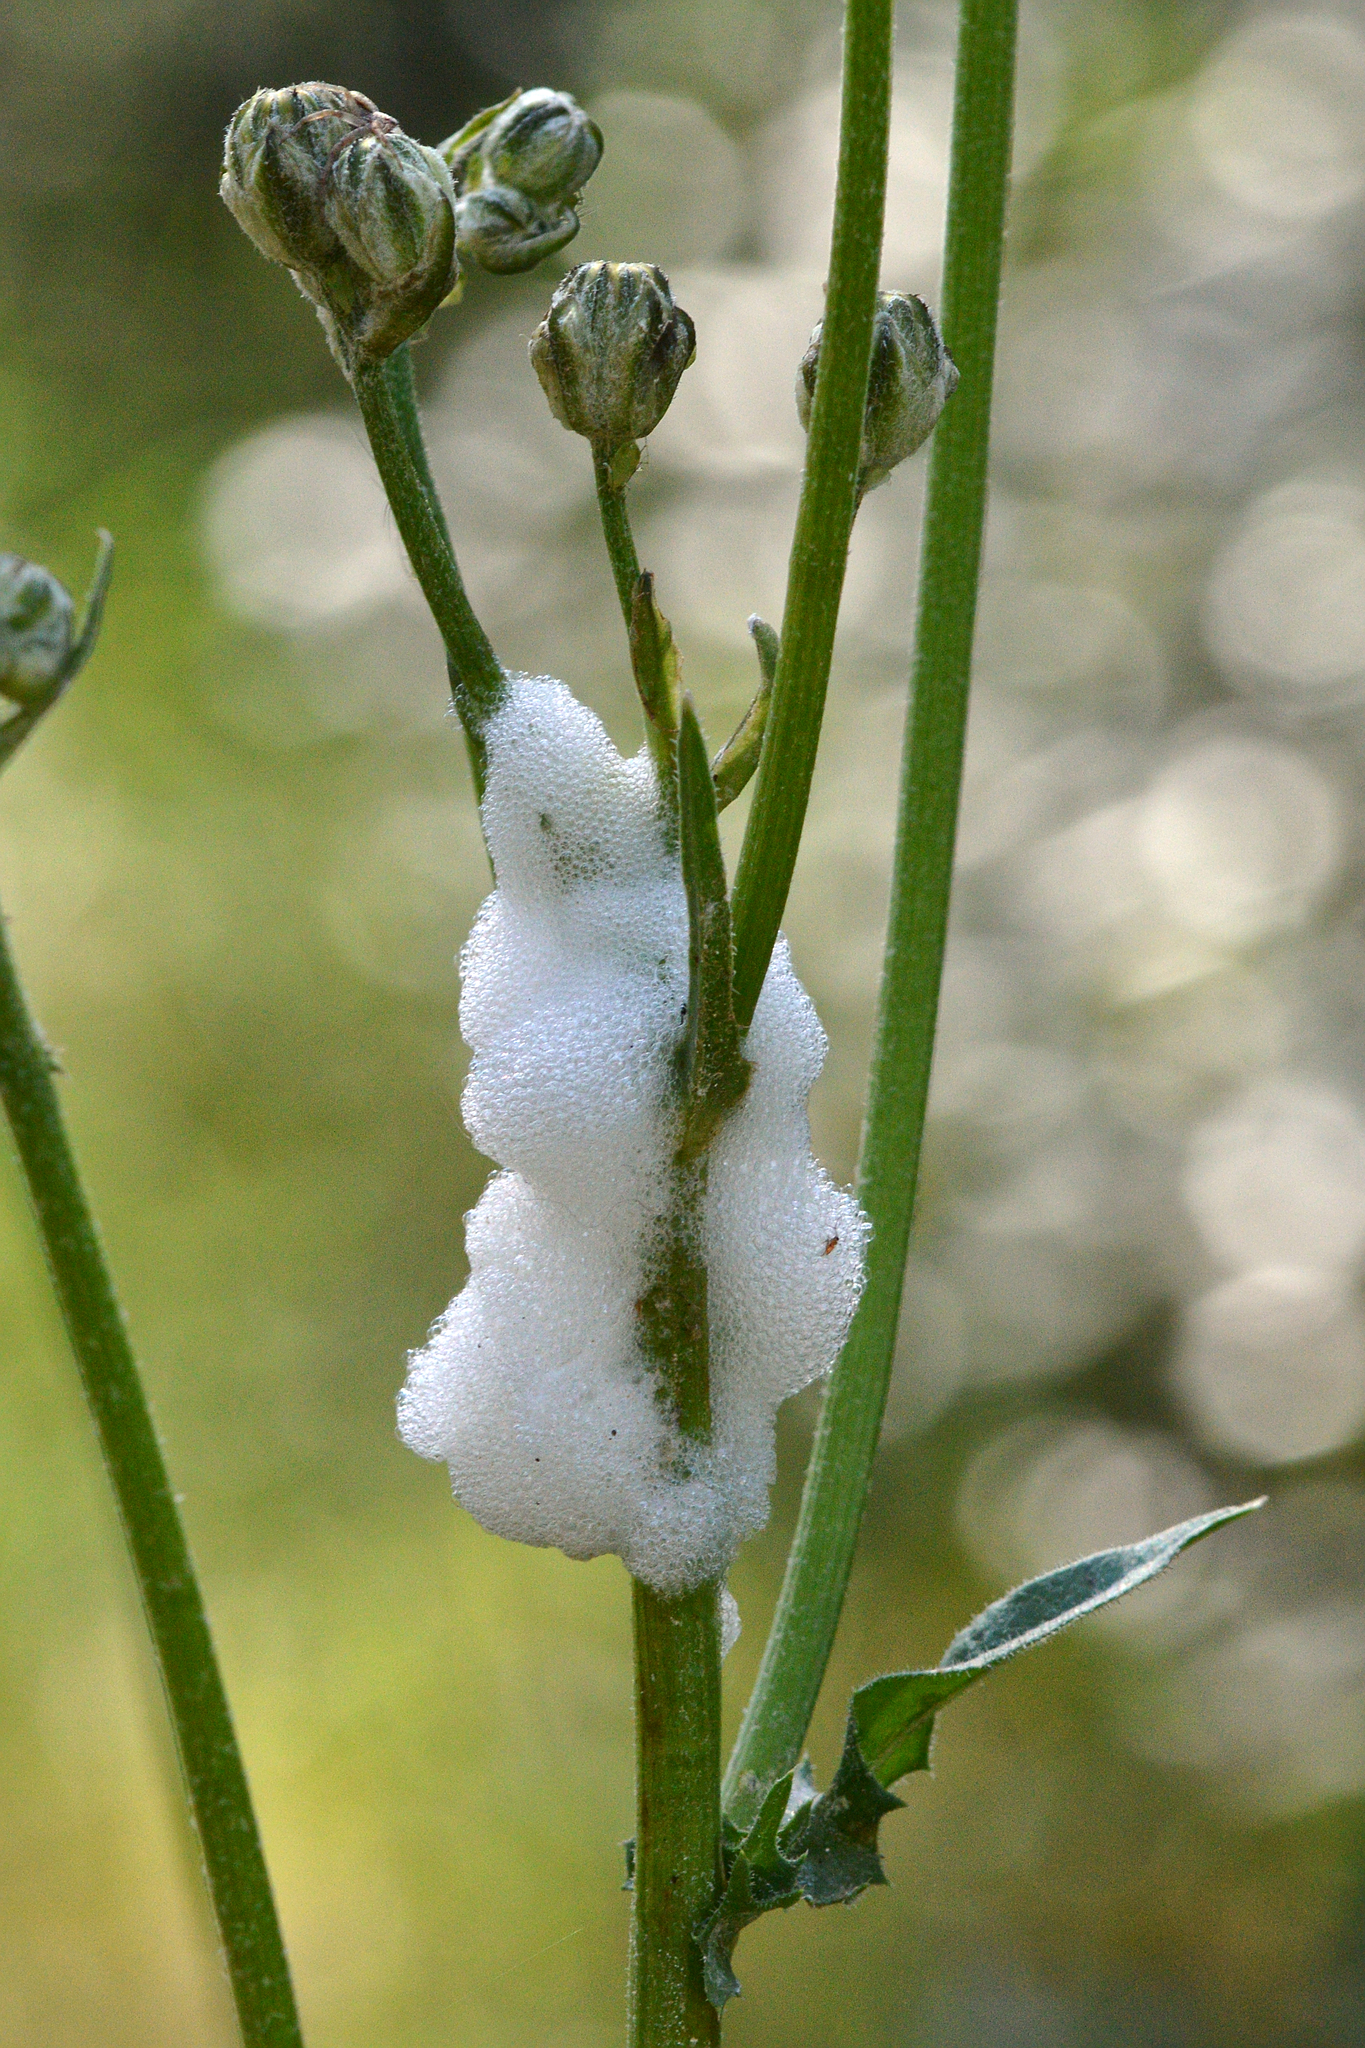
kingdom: Plantae
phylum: Tracheophyta
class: Magnoliopsida
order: Asterales
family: Asteraceae
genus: Crepis
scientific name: Crepis vesicaria
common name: Beaked hawksbeard
